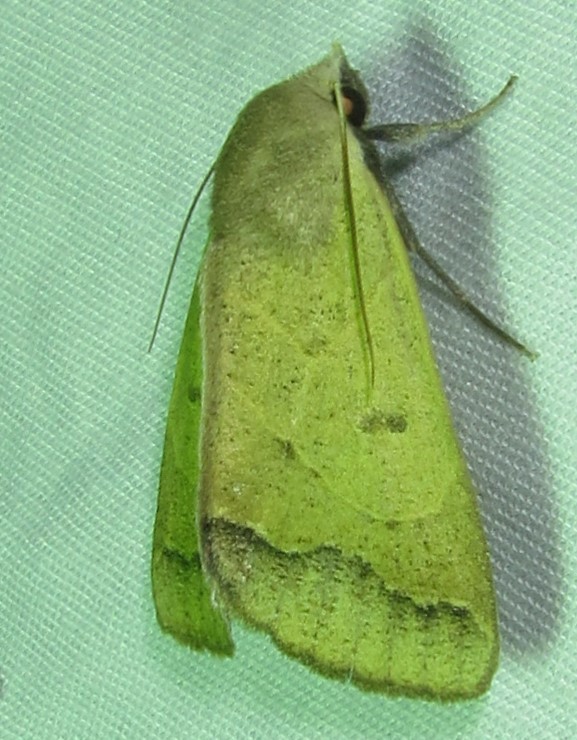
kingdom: Animalia
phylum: Arthropoda
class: Insecta
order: Lepidoptera
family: Erebidae
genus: Ophiusa
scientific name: Ophiusa selenaris
